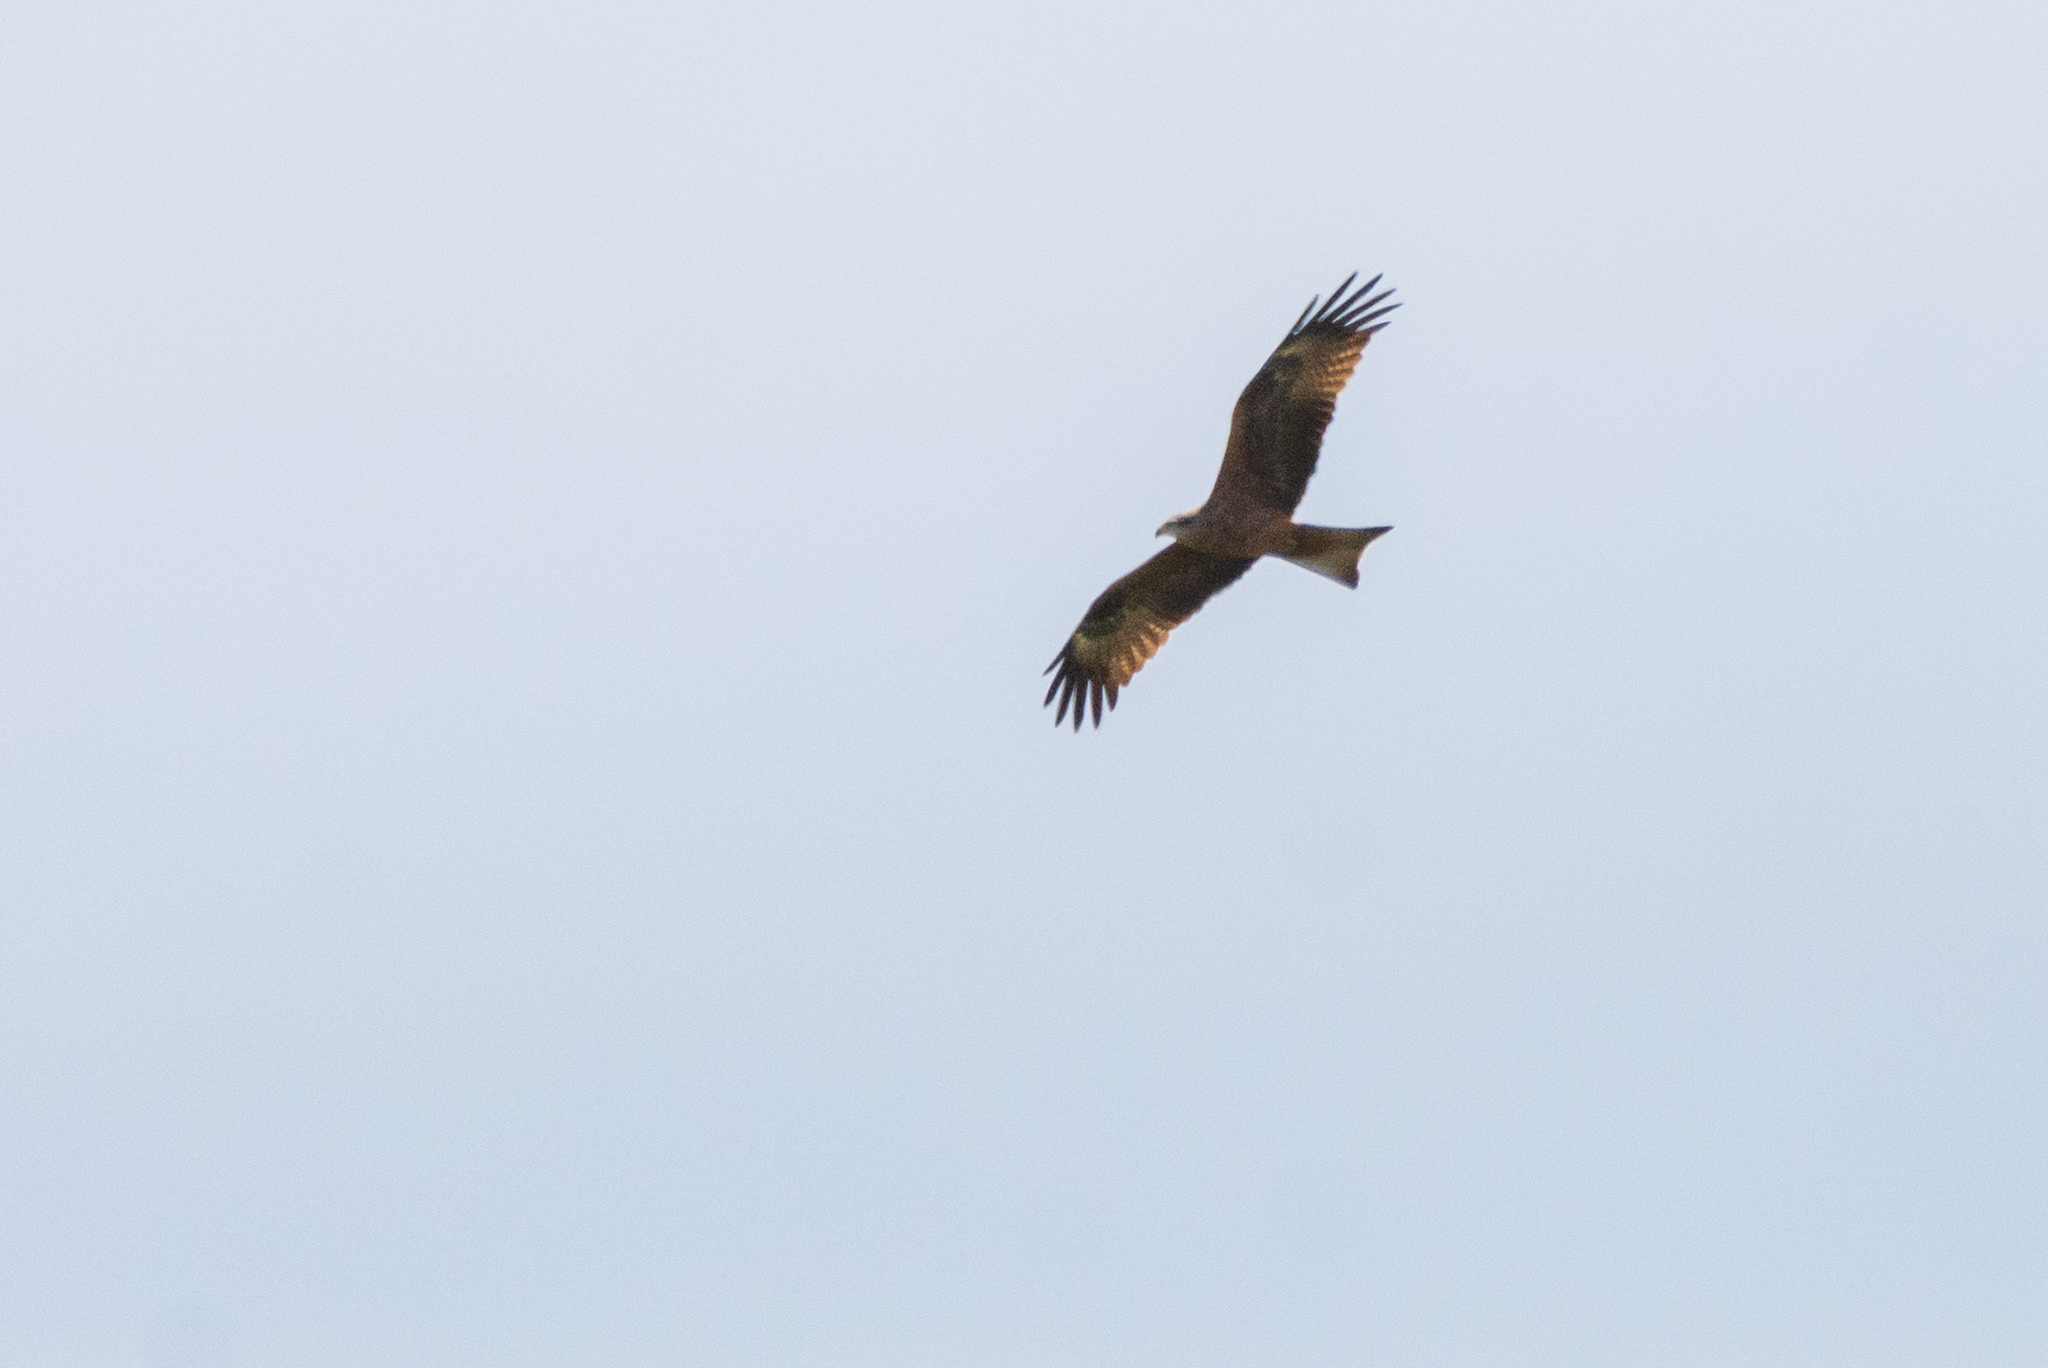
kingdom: Animalia
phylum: Chordata
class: Aves
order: Accipitriformes
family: Accipitridae
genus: Milvus
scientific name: Milvus migrans
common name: Black kite
